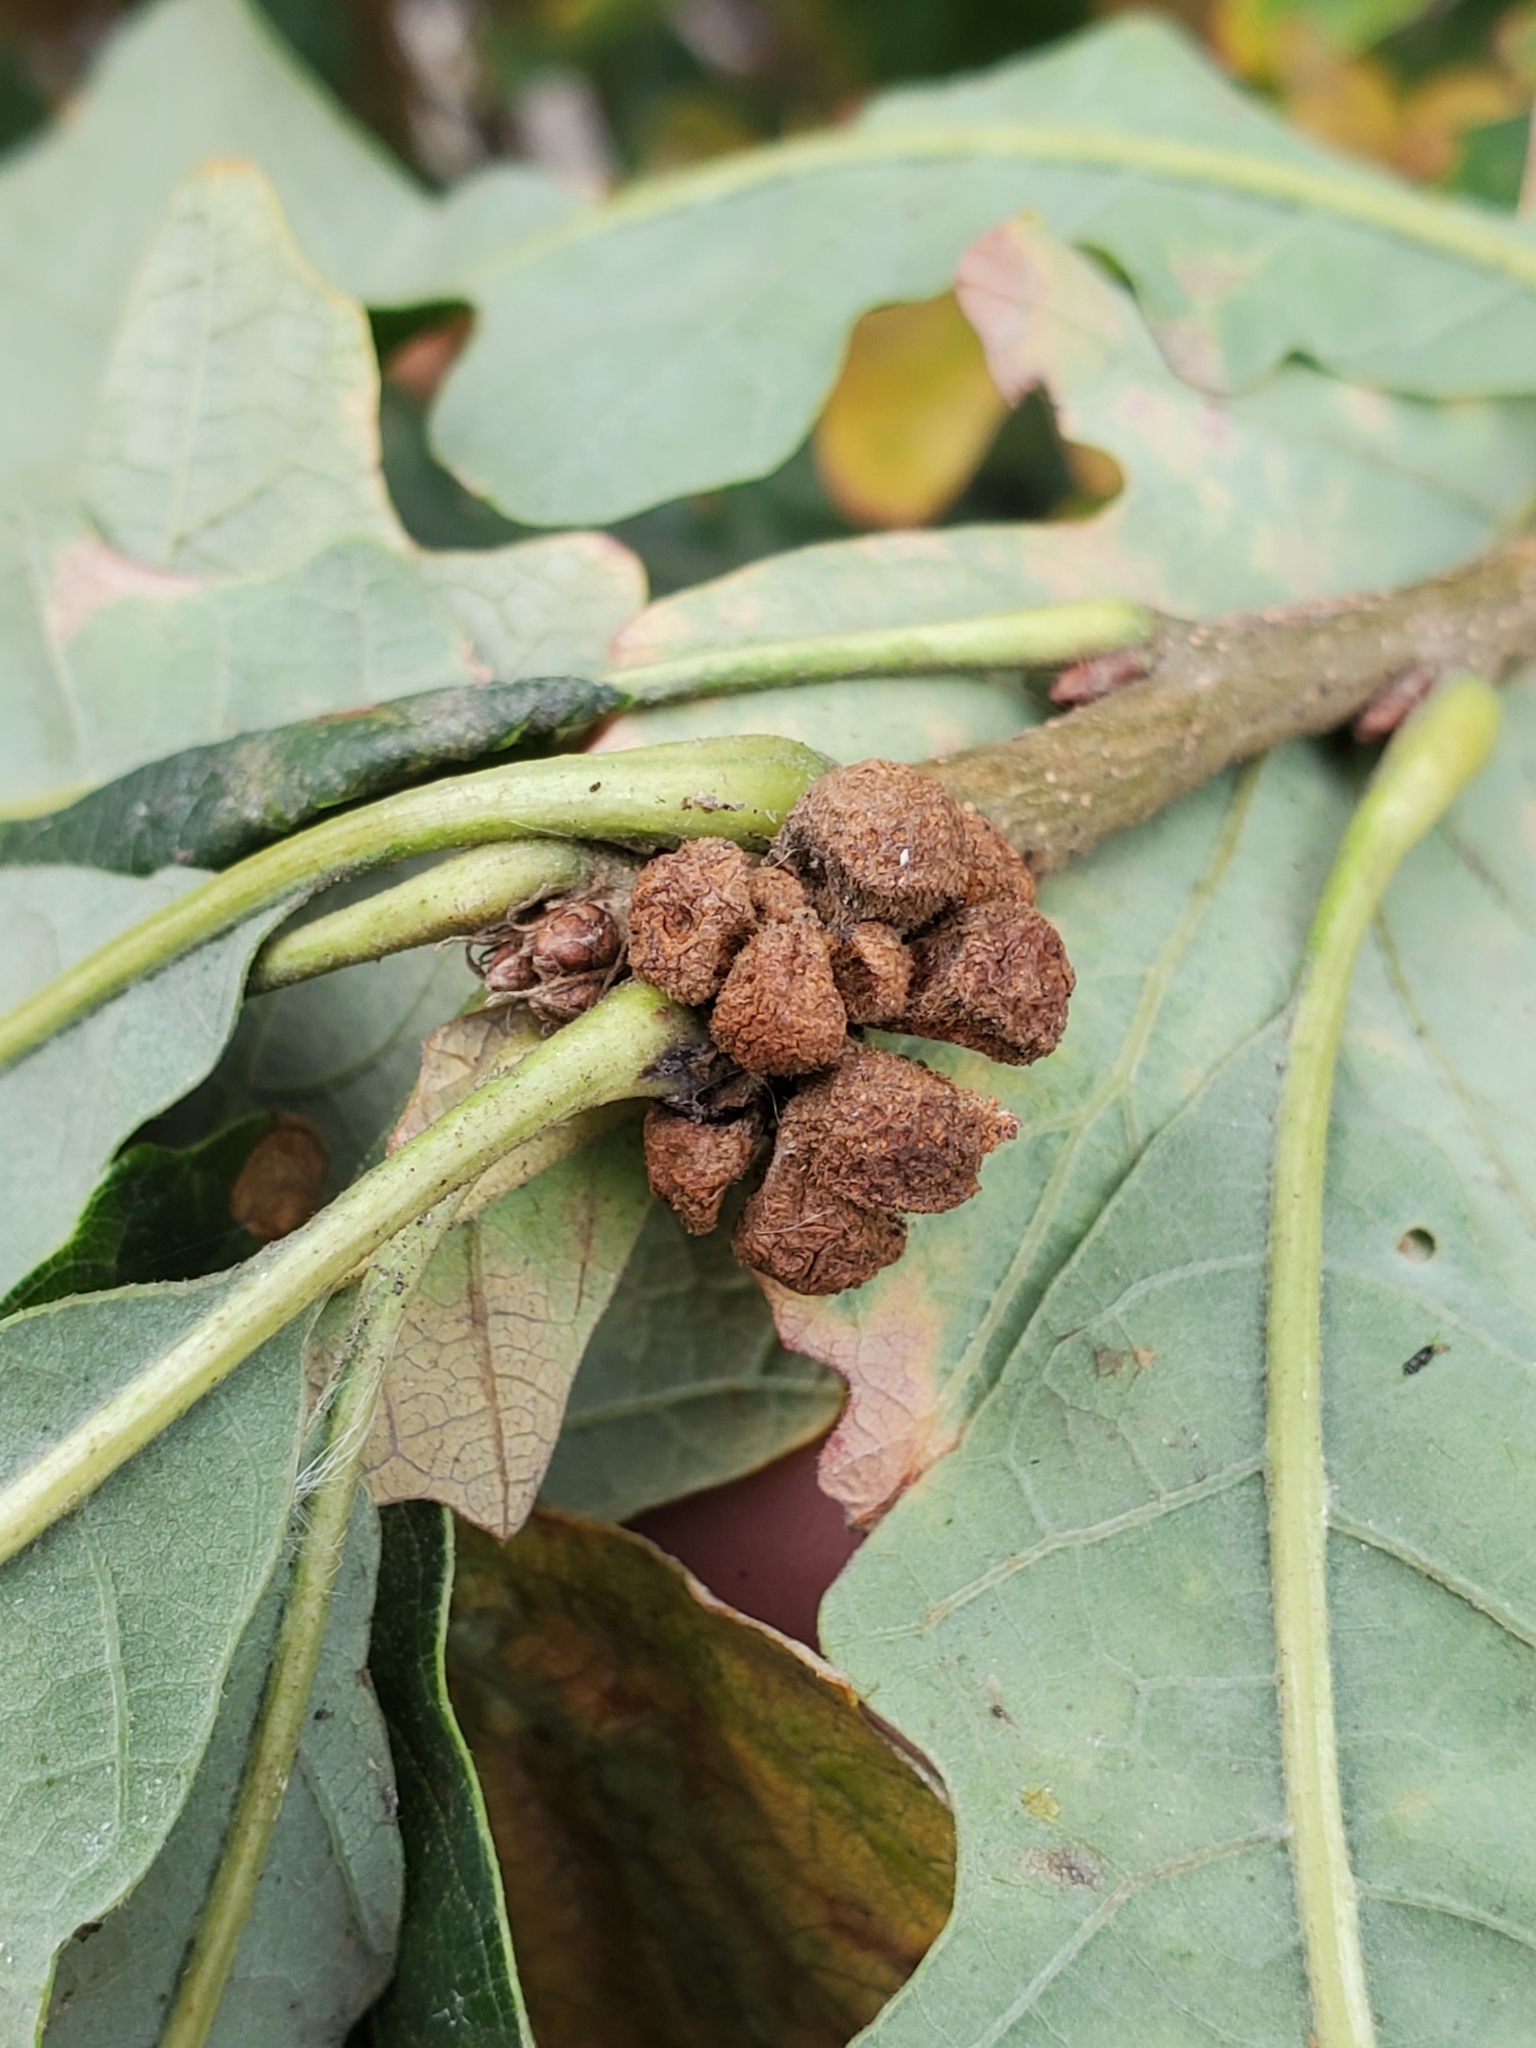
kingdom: Animalia
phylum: Arthropoda
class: Insecta
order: Hymenoptera
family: Cynipidae
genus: Andricus
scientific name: Andricus
